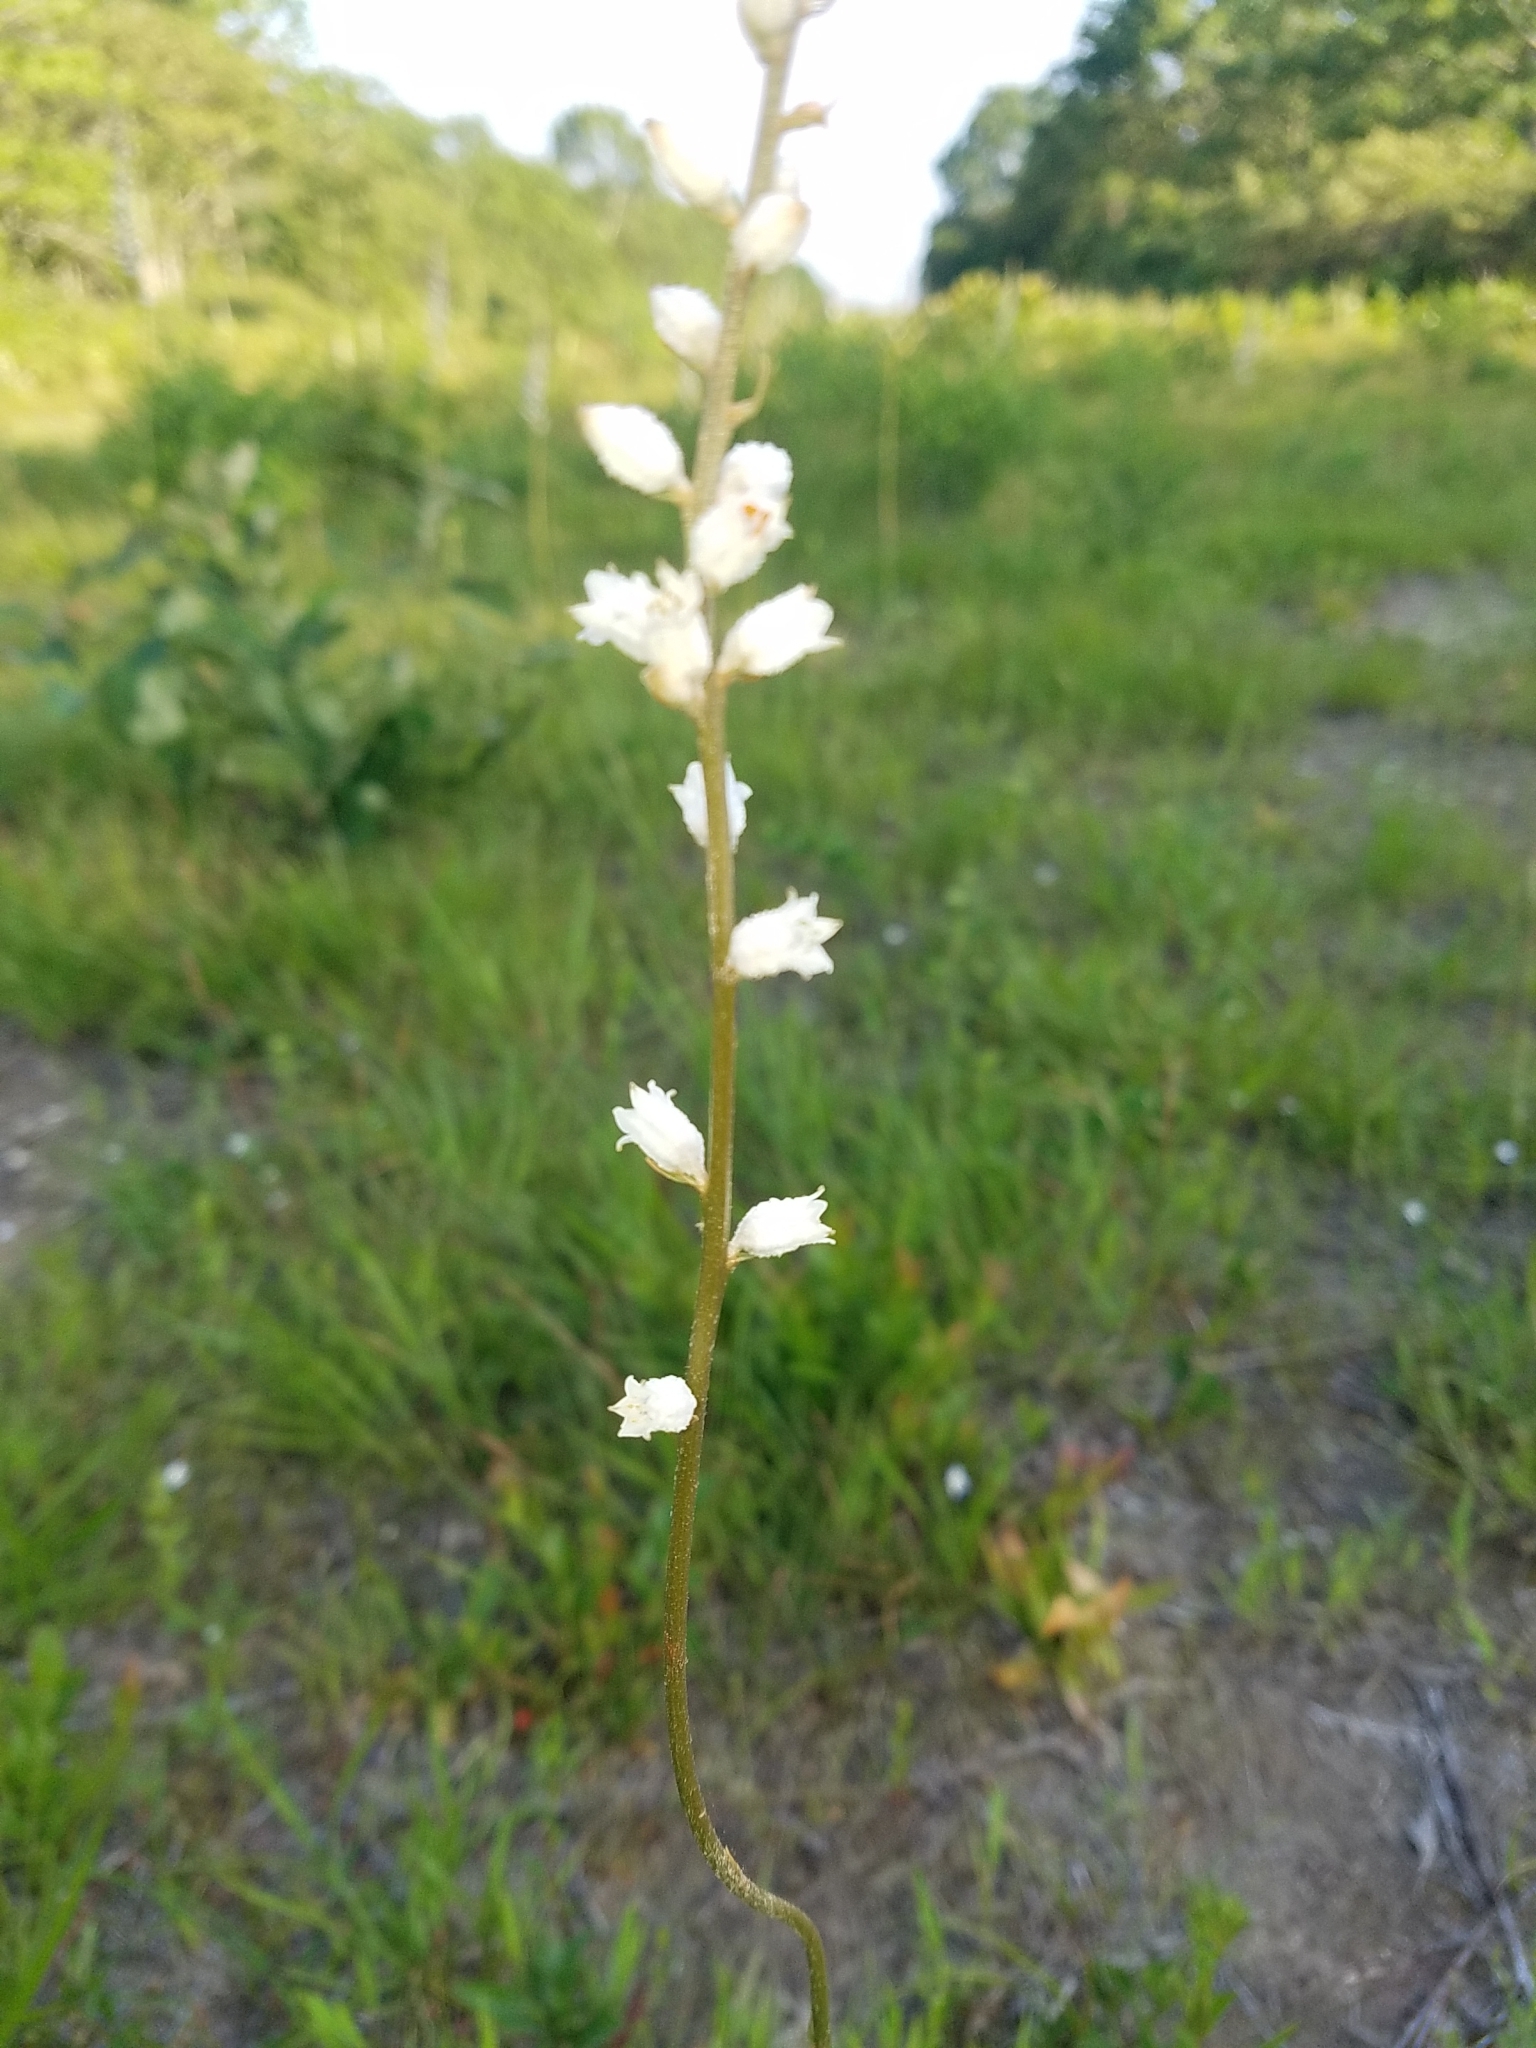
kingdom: Plantae
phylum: Tracheophyta
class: Liliopsida
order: Dioscoreales
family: Nartheciaceae
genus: Aletris
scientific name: Aletris farinosa
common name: Colicroot
